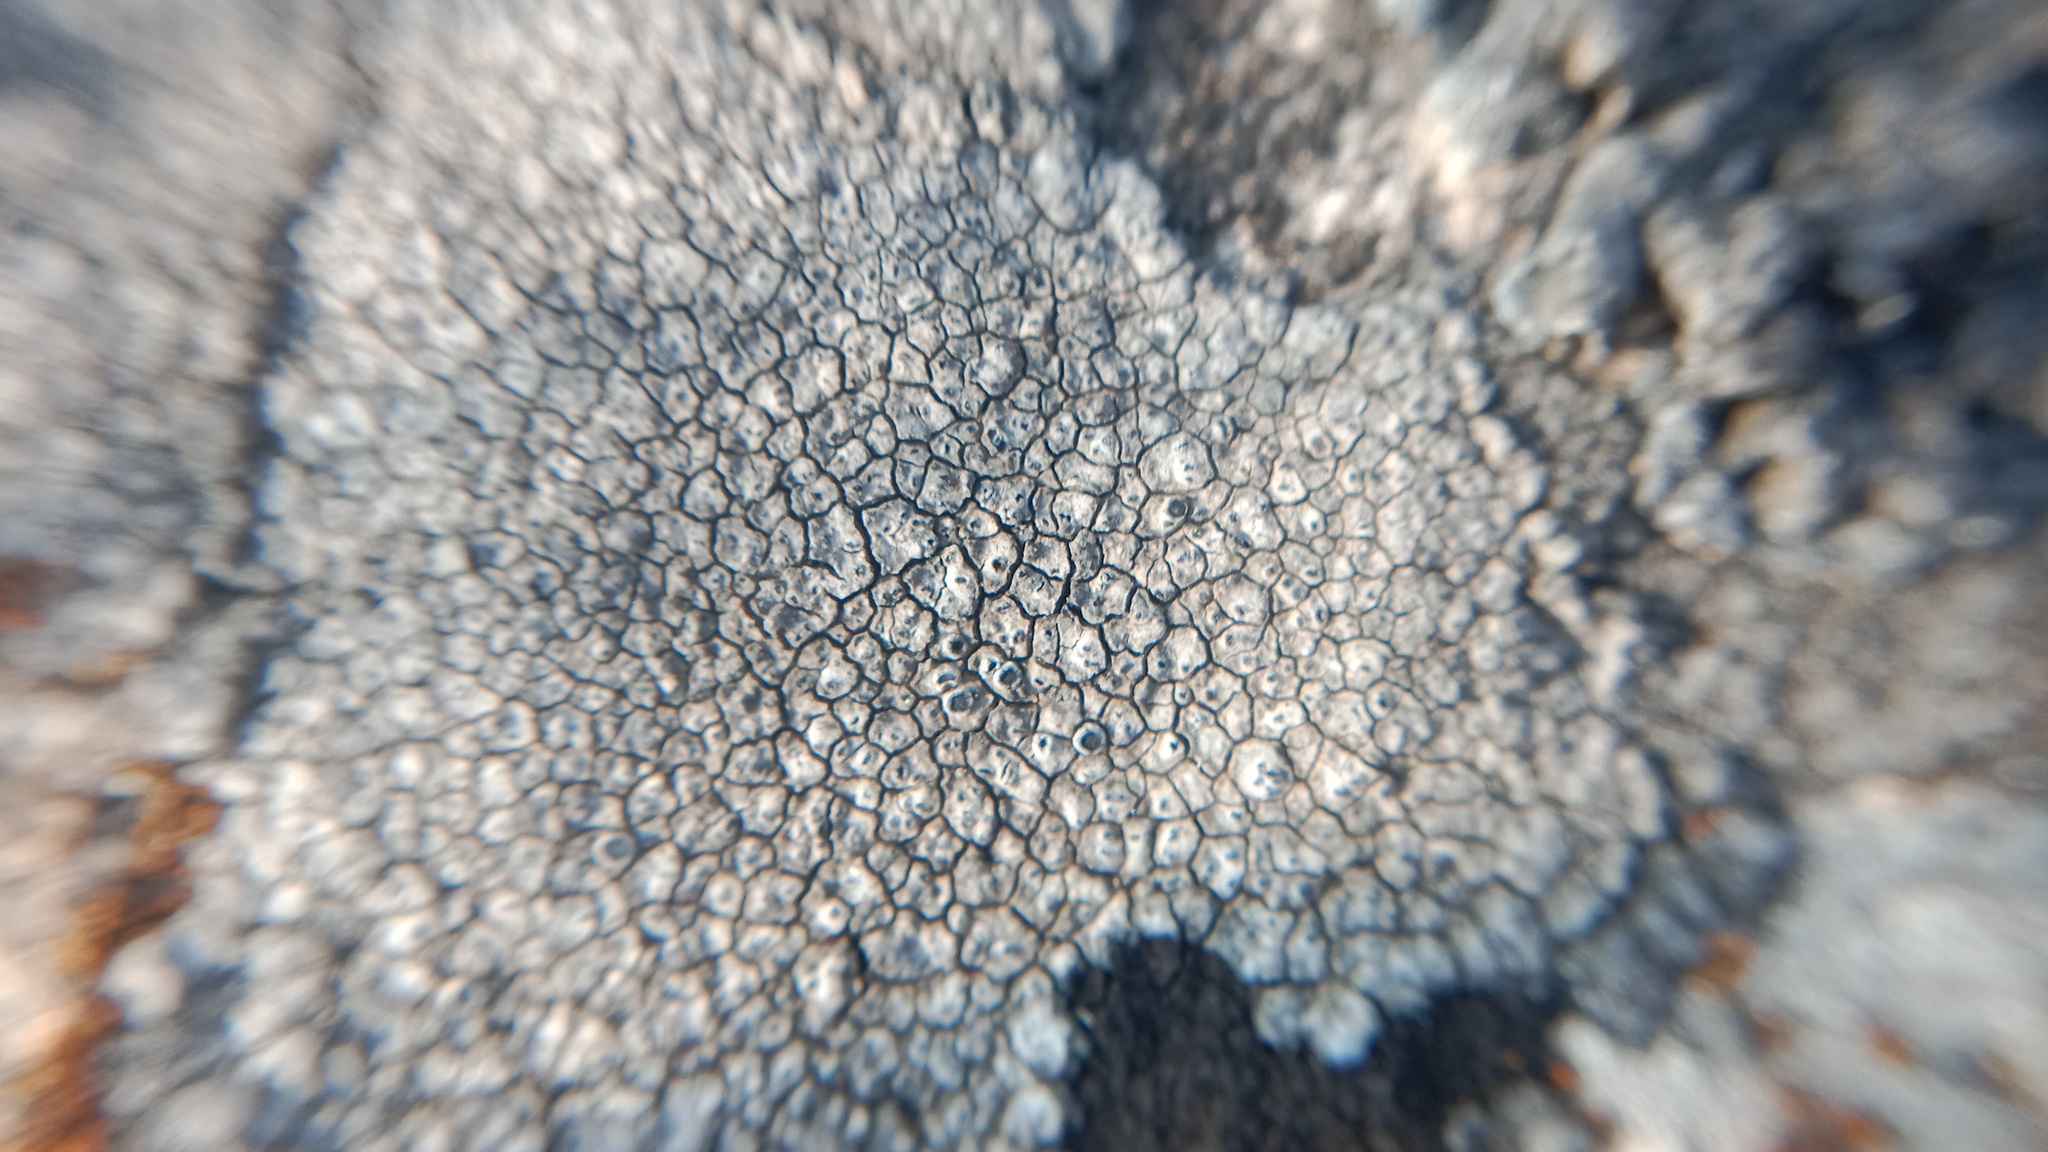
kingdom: Fungi
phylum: Ascomycota
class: Lecanoromycetes
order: Teloschistales
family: Teloschistaceae
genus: Pyrenodesmia
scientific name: Pyrenodesmia variabilis
